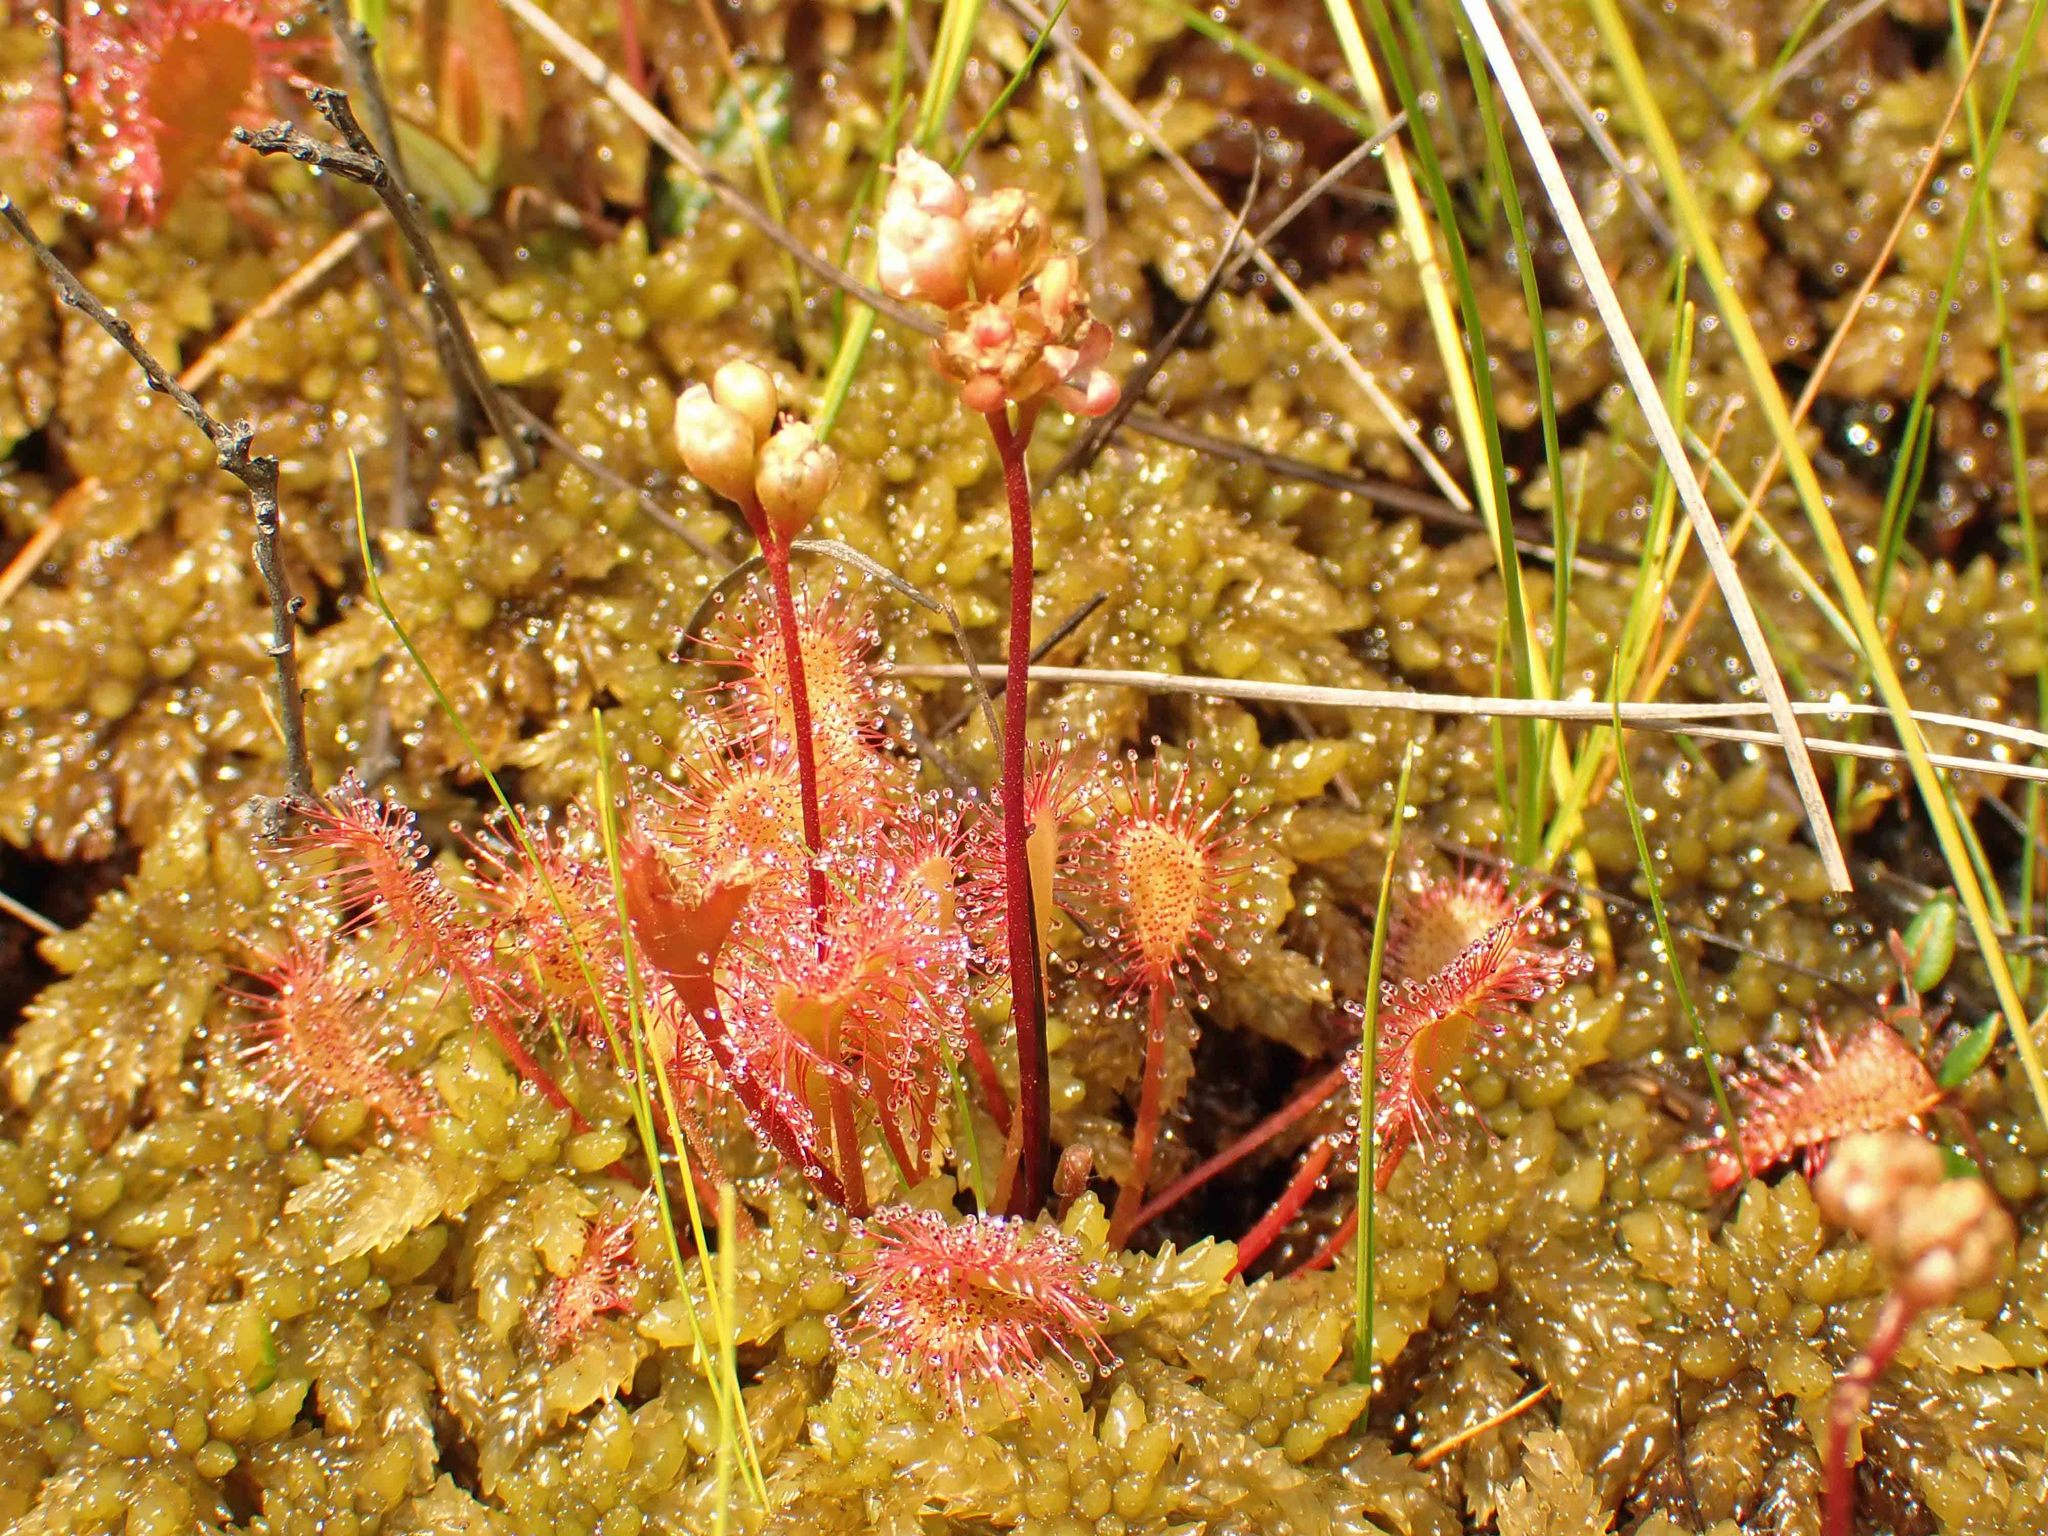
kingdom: Plantae
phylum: Tracheophyta
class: Magnoliopsida
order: Caryophyllales
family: Droseraceae
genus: Drosera
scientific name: Drosera obovata
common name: Ivan's paddle
